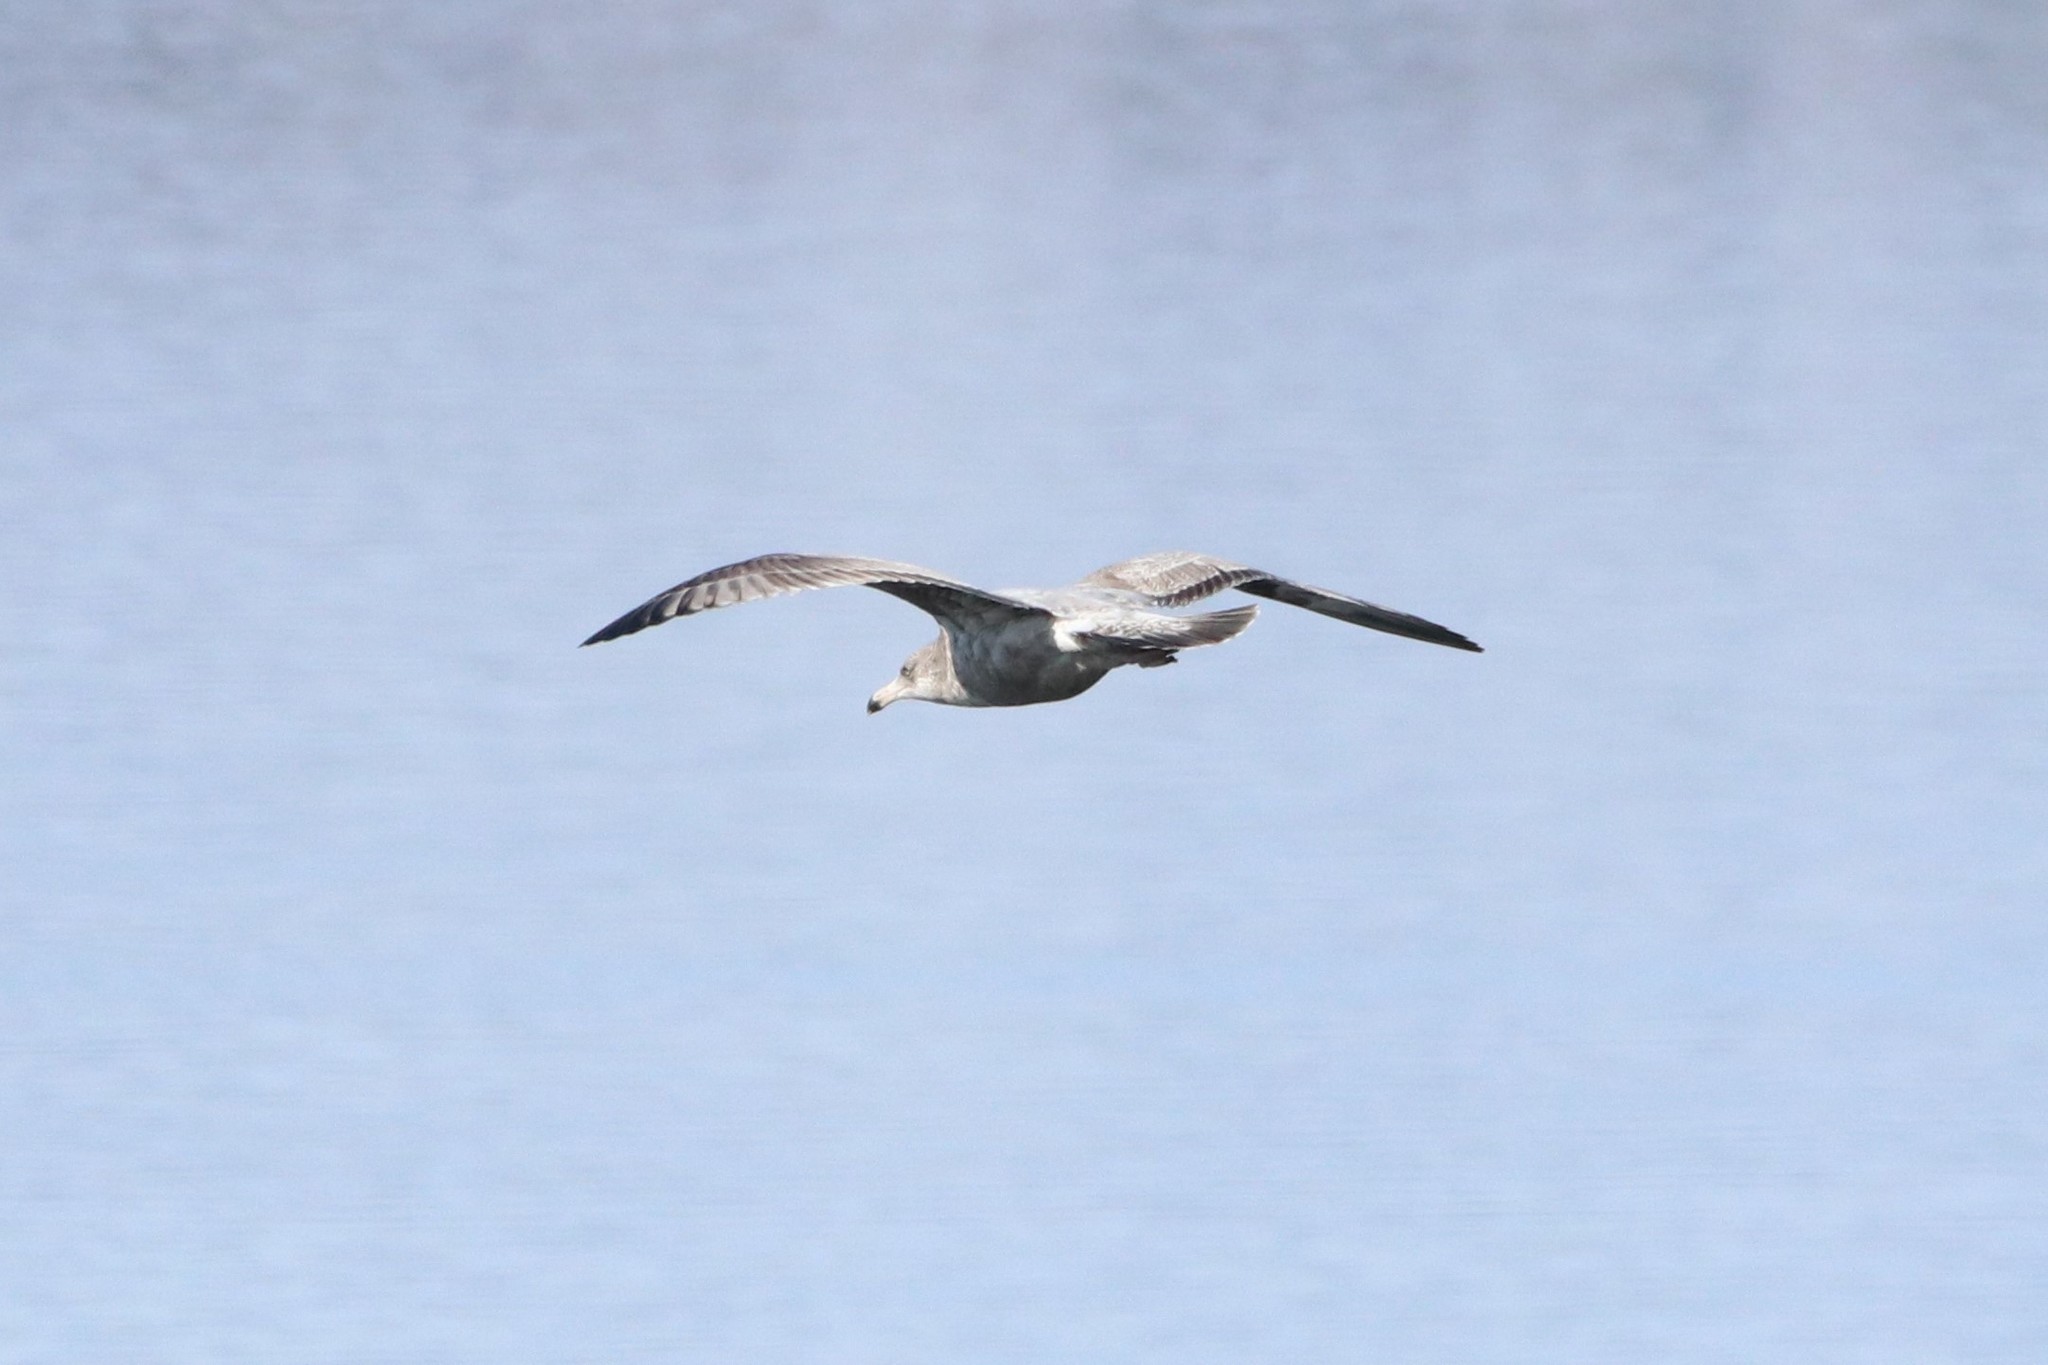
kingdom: Animalia
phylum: Chordata
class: Aves
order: Charadriiformes
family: Laridae
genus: Larus
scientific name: Larus argentatus
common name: Herring gull
